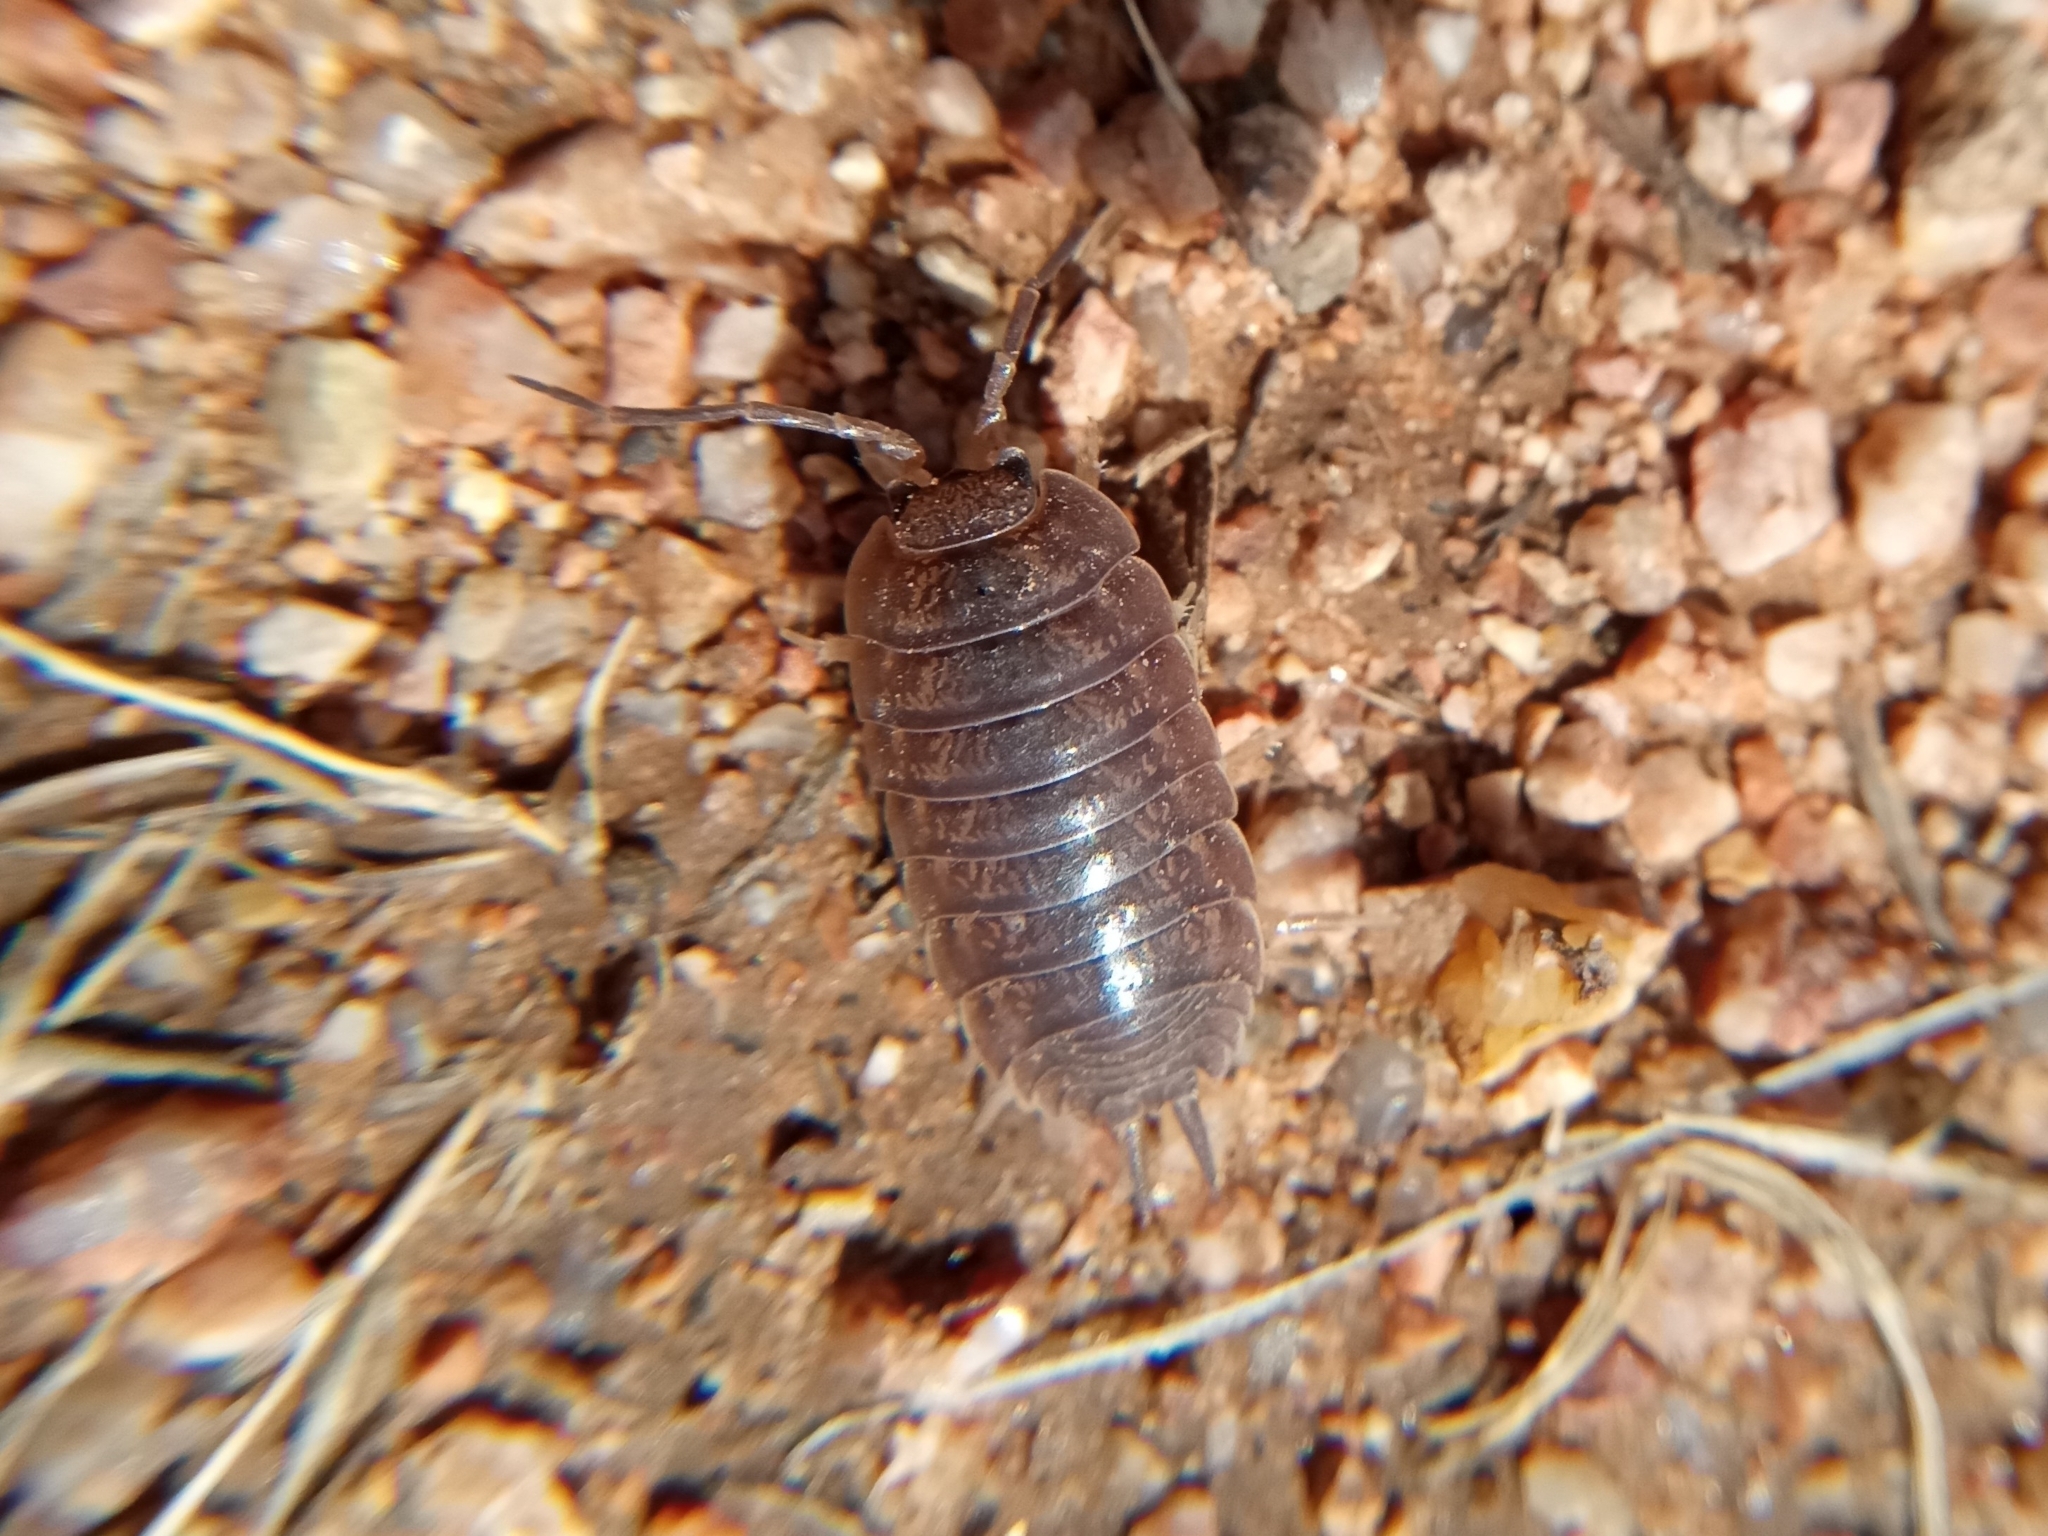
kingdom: Animalia
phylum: Arthropoda
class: Malacostraca
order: Isopoda
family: Porcellionidae
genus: Porcellio
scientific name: Porcellio laevis
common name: Swift woodlouse
